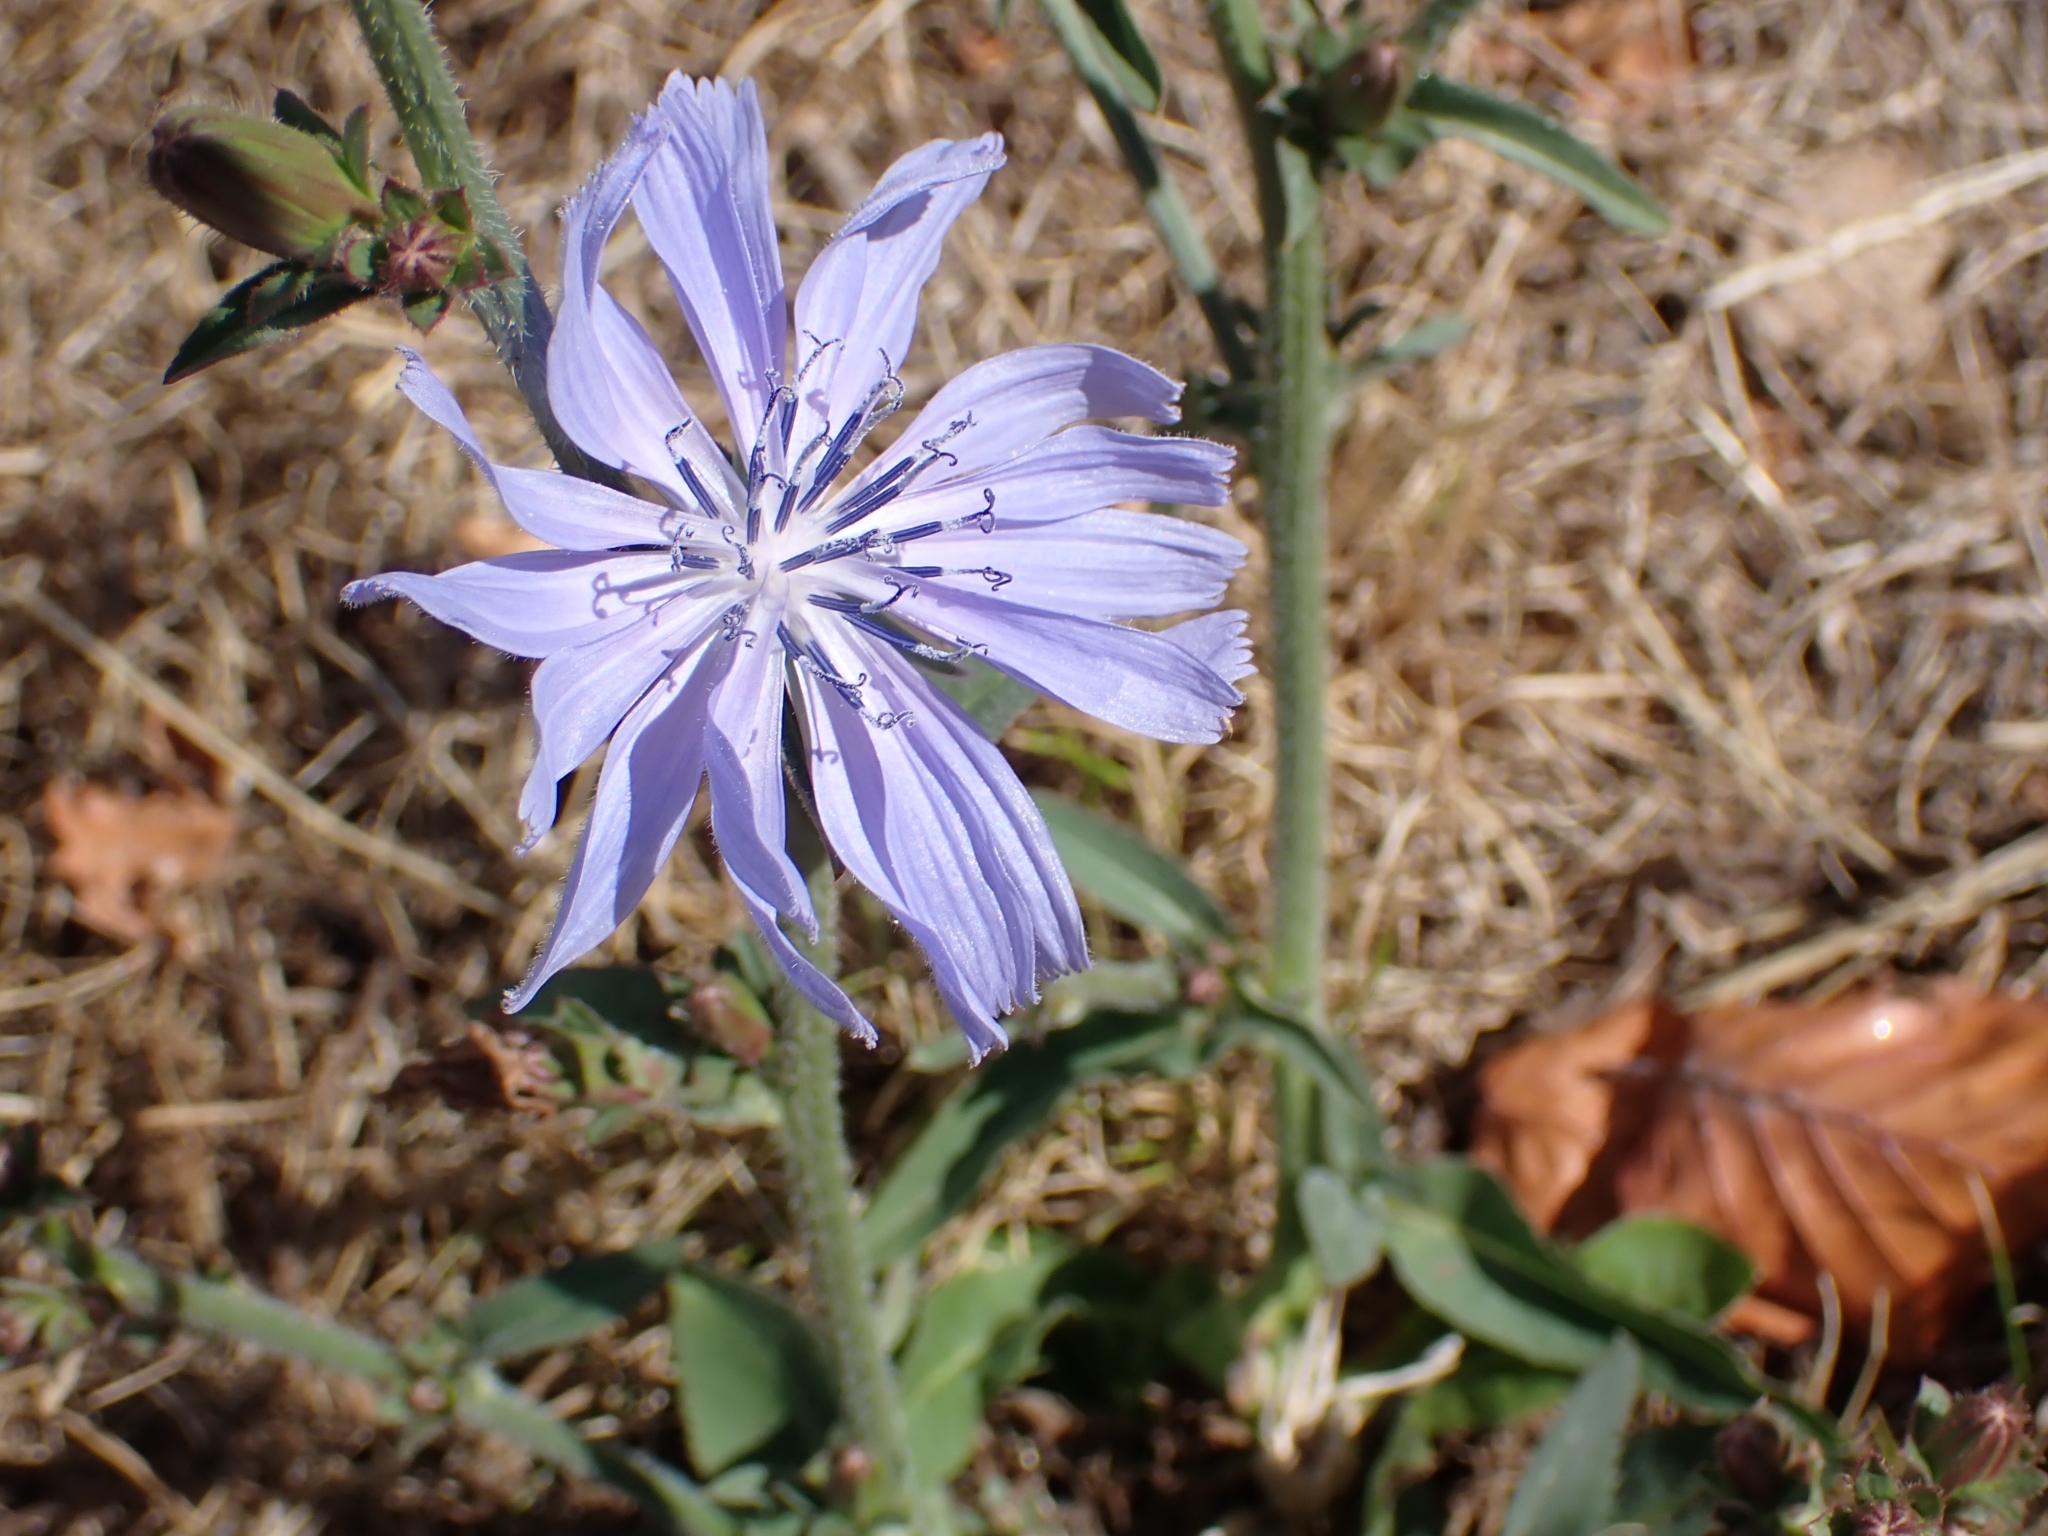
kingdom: Plantae
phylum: Tracheophyta
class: Magnoliopsida
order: Asterales
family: Asteraceae
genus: Cichorium
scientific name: Cichorium intybus
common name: Chicory
